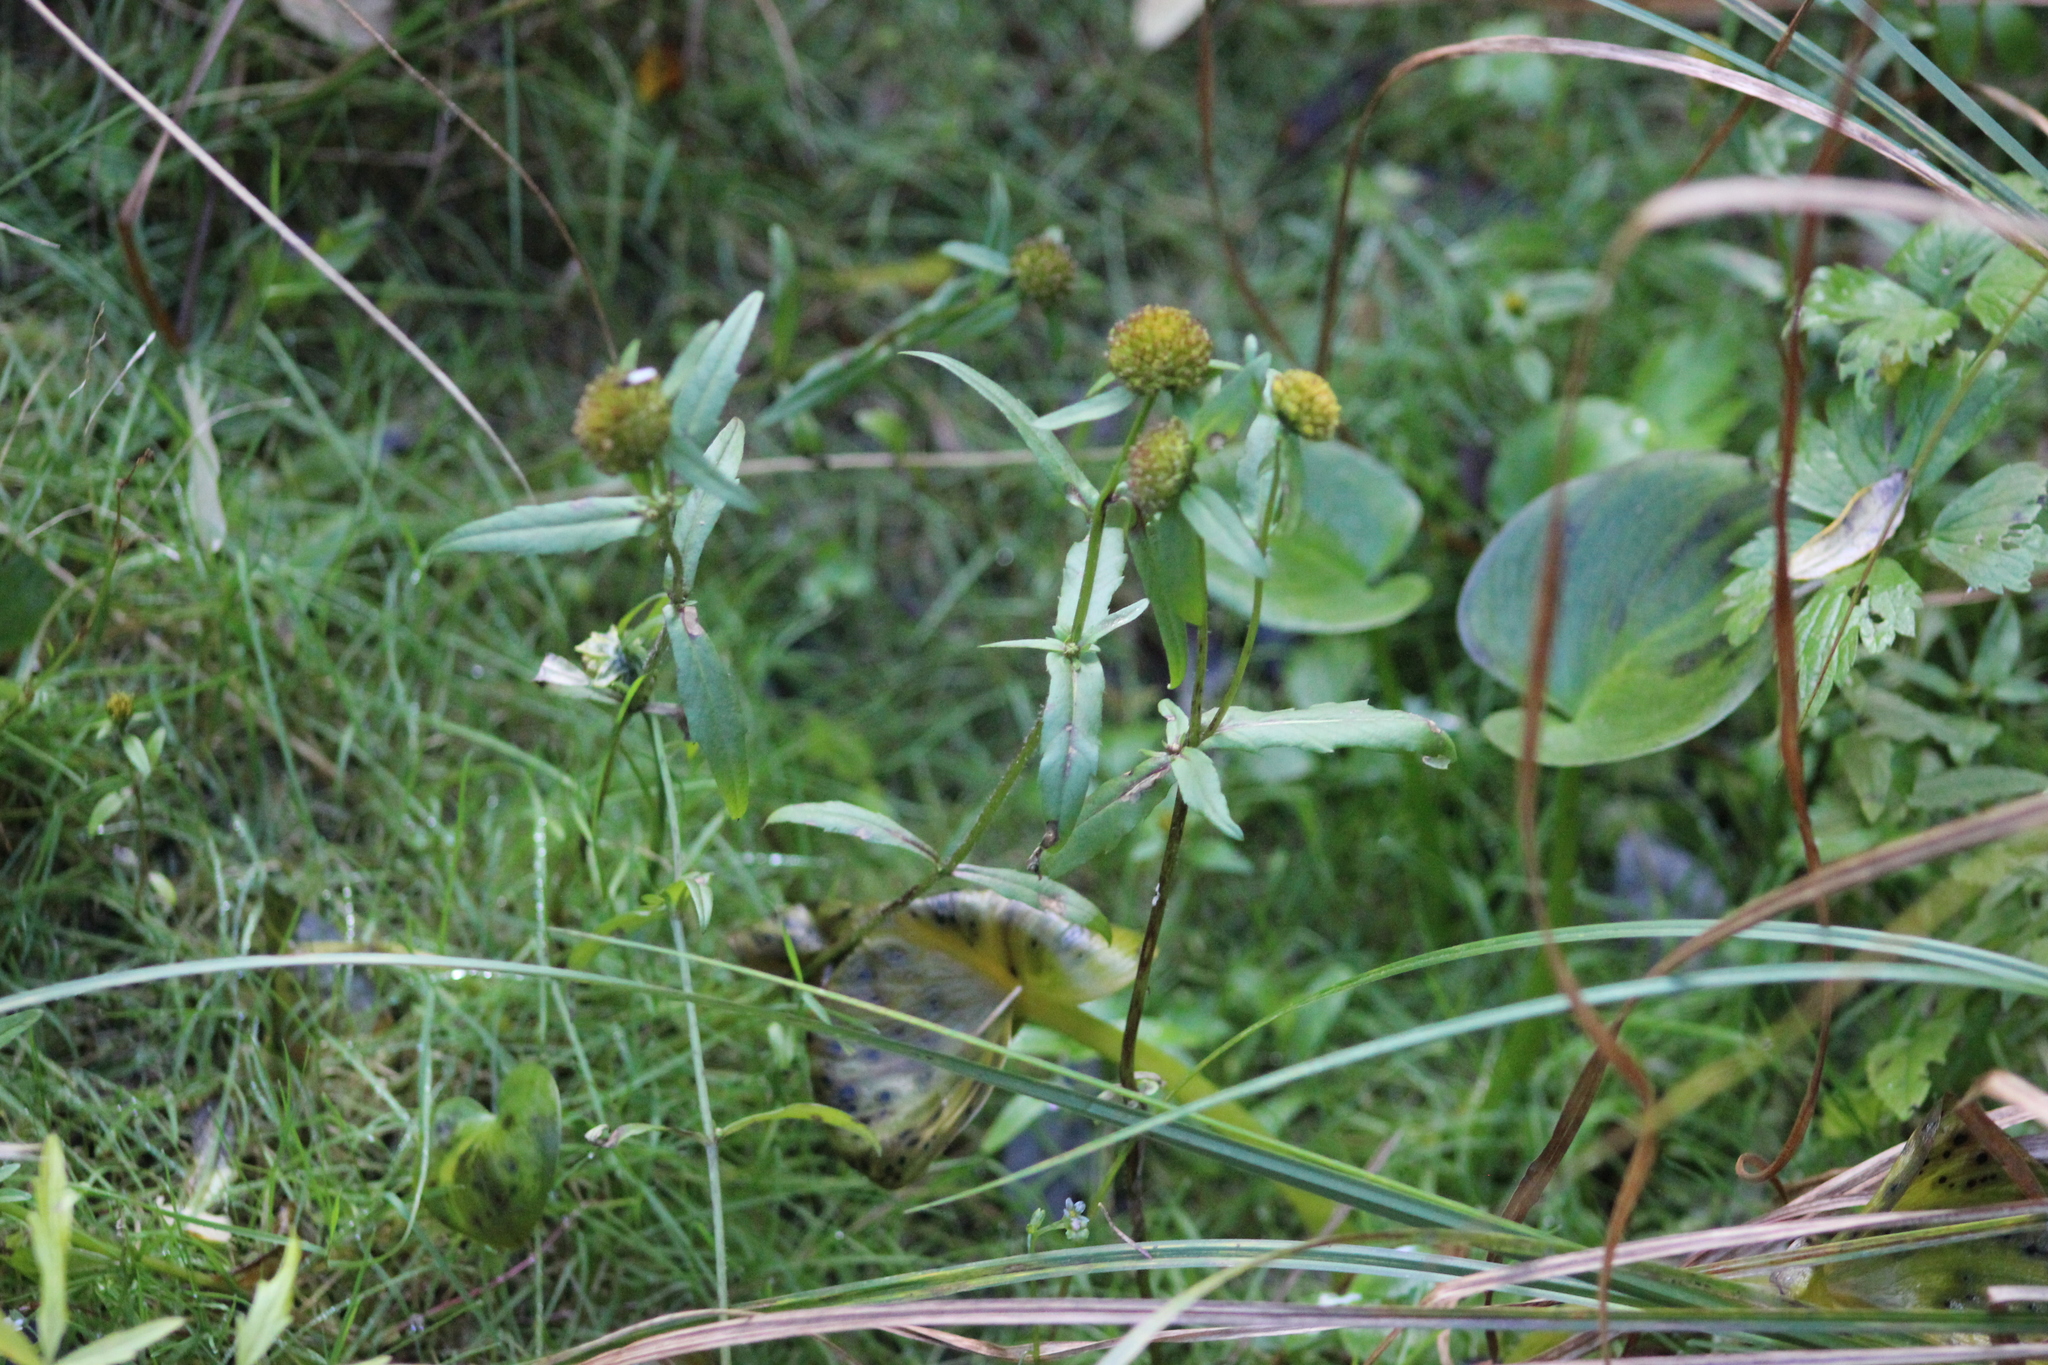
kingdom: Plantae
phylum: Tracheophyta
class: Magnoliopsida
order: Asterales
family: Asteraceae
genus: Bidens
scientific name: Bidens cernua
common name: Nodding bur-marigold
